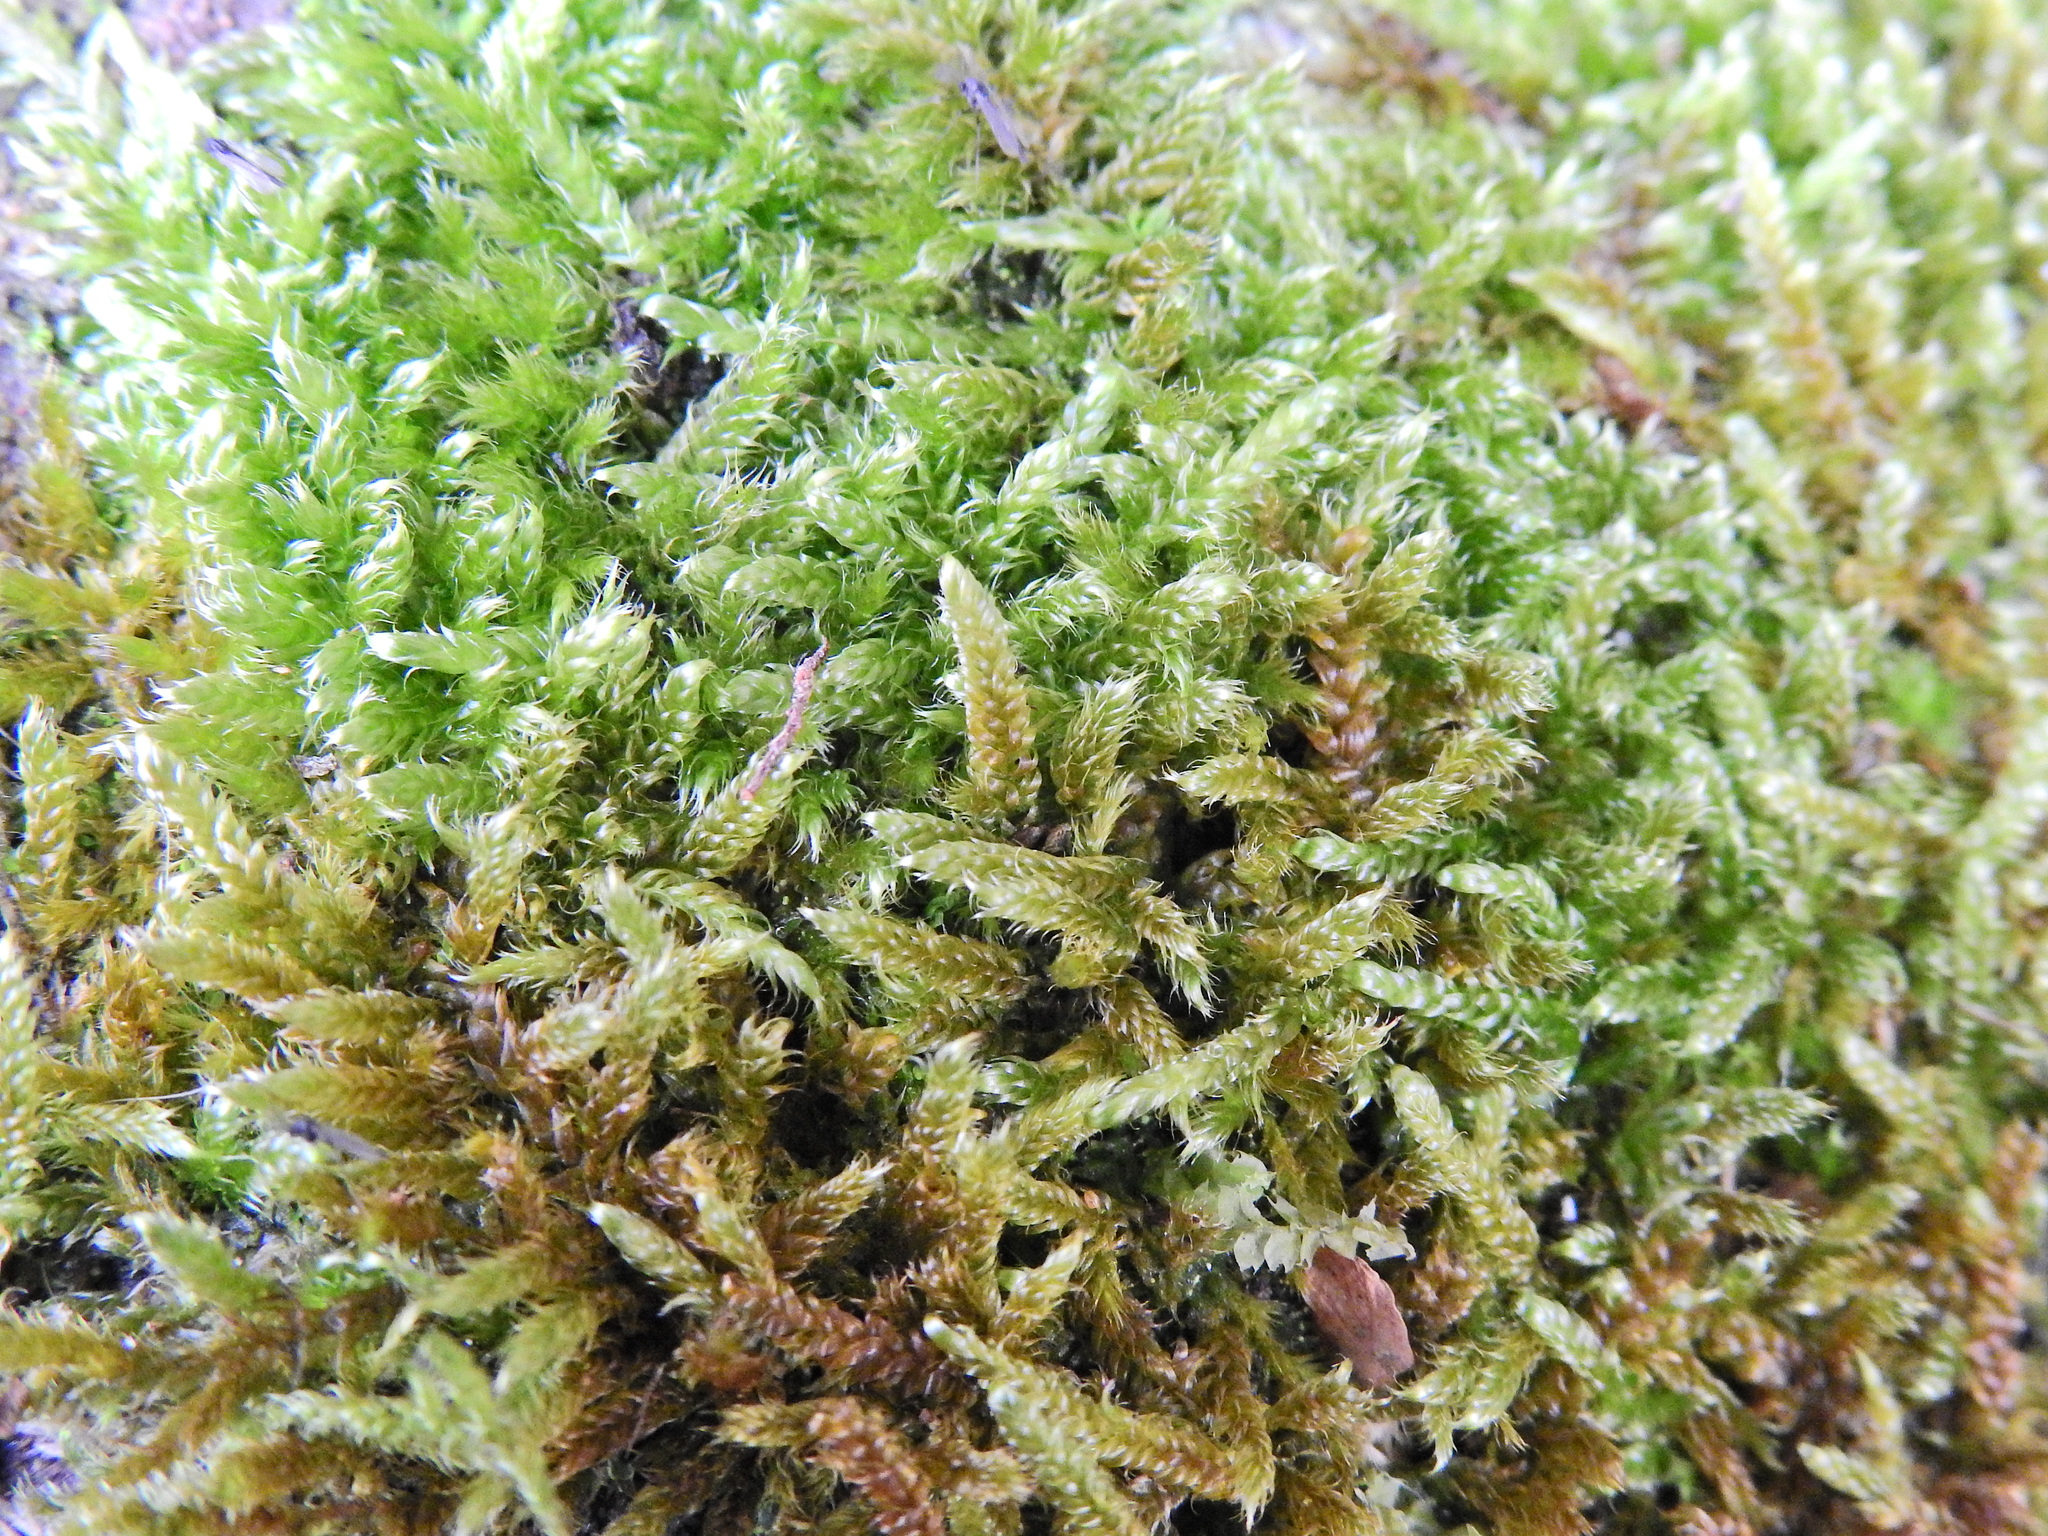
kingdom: Plantae
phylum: Bryophyta
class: Bryopsida
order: Hypnales
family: Hypnaceae
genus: Hypnum
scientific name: Hypnum cupressiforme
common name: Cypress-leaved plait-moss
